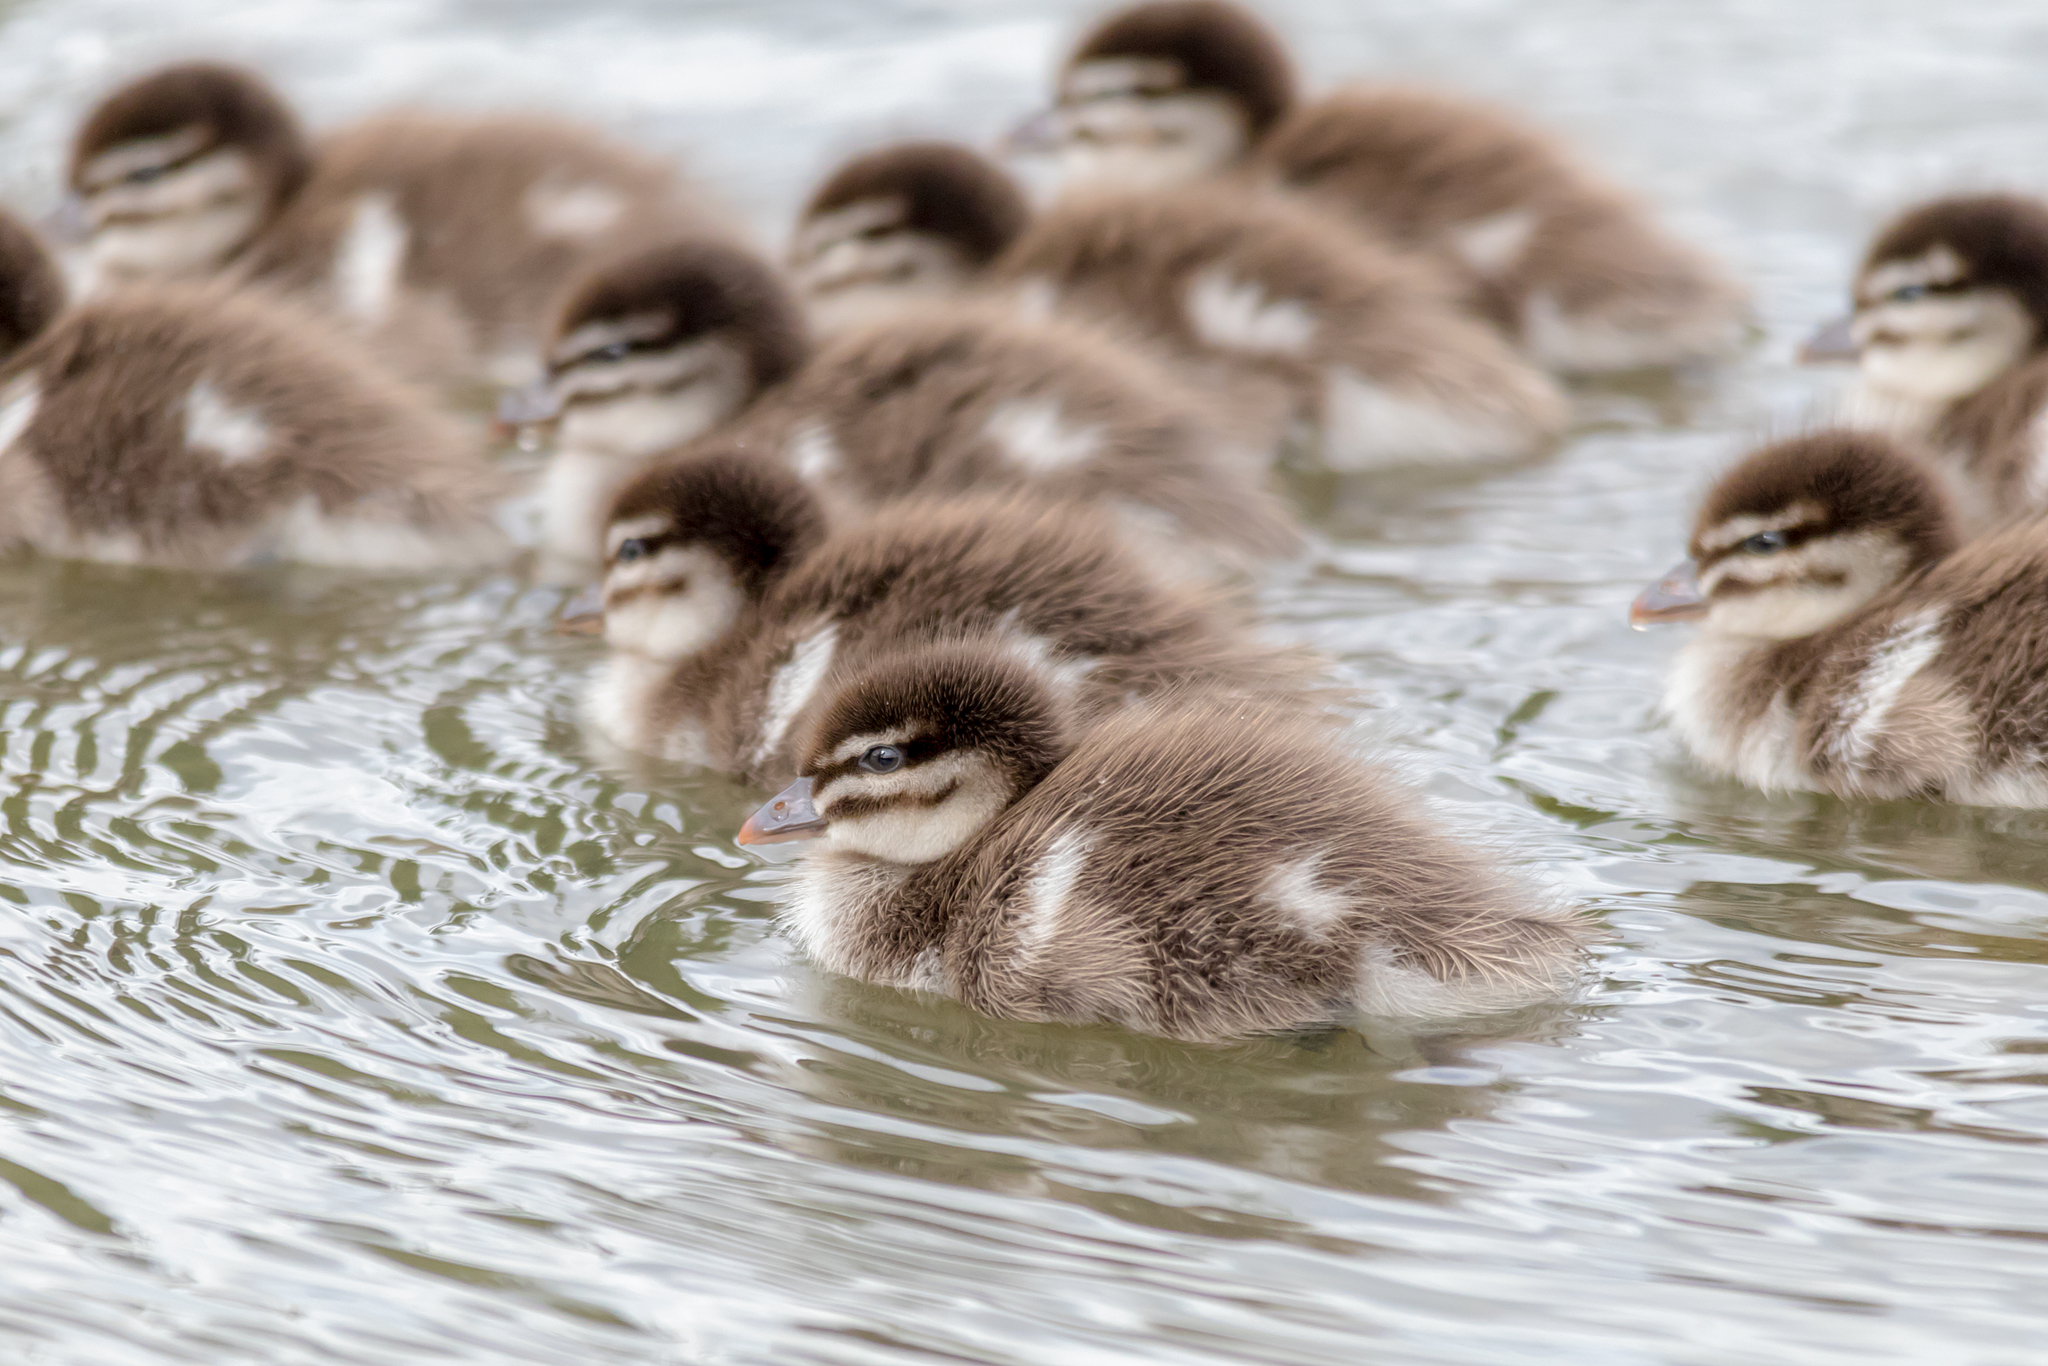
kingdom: Animalia
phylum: Chordata
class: Aves
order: Anseriformes
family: Anatidae
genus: Chenonetta
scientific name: Chenonetta jubata
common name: Maned duck
